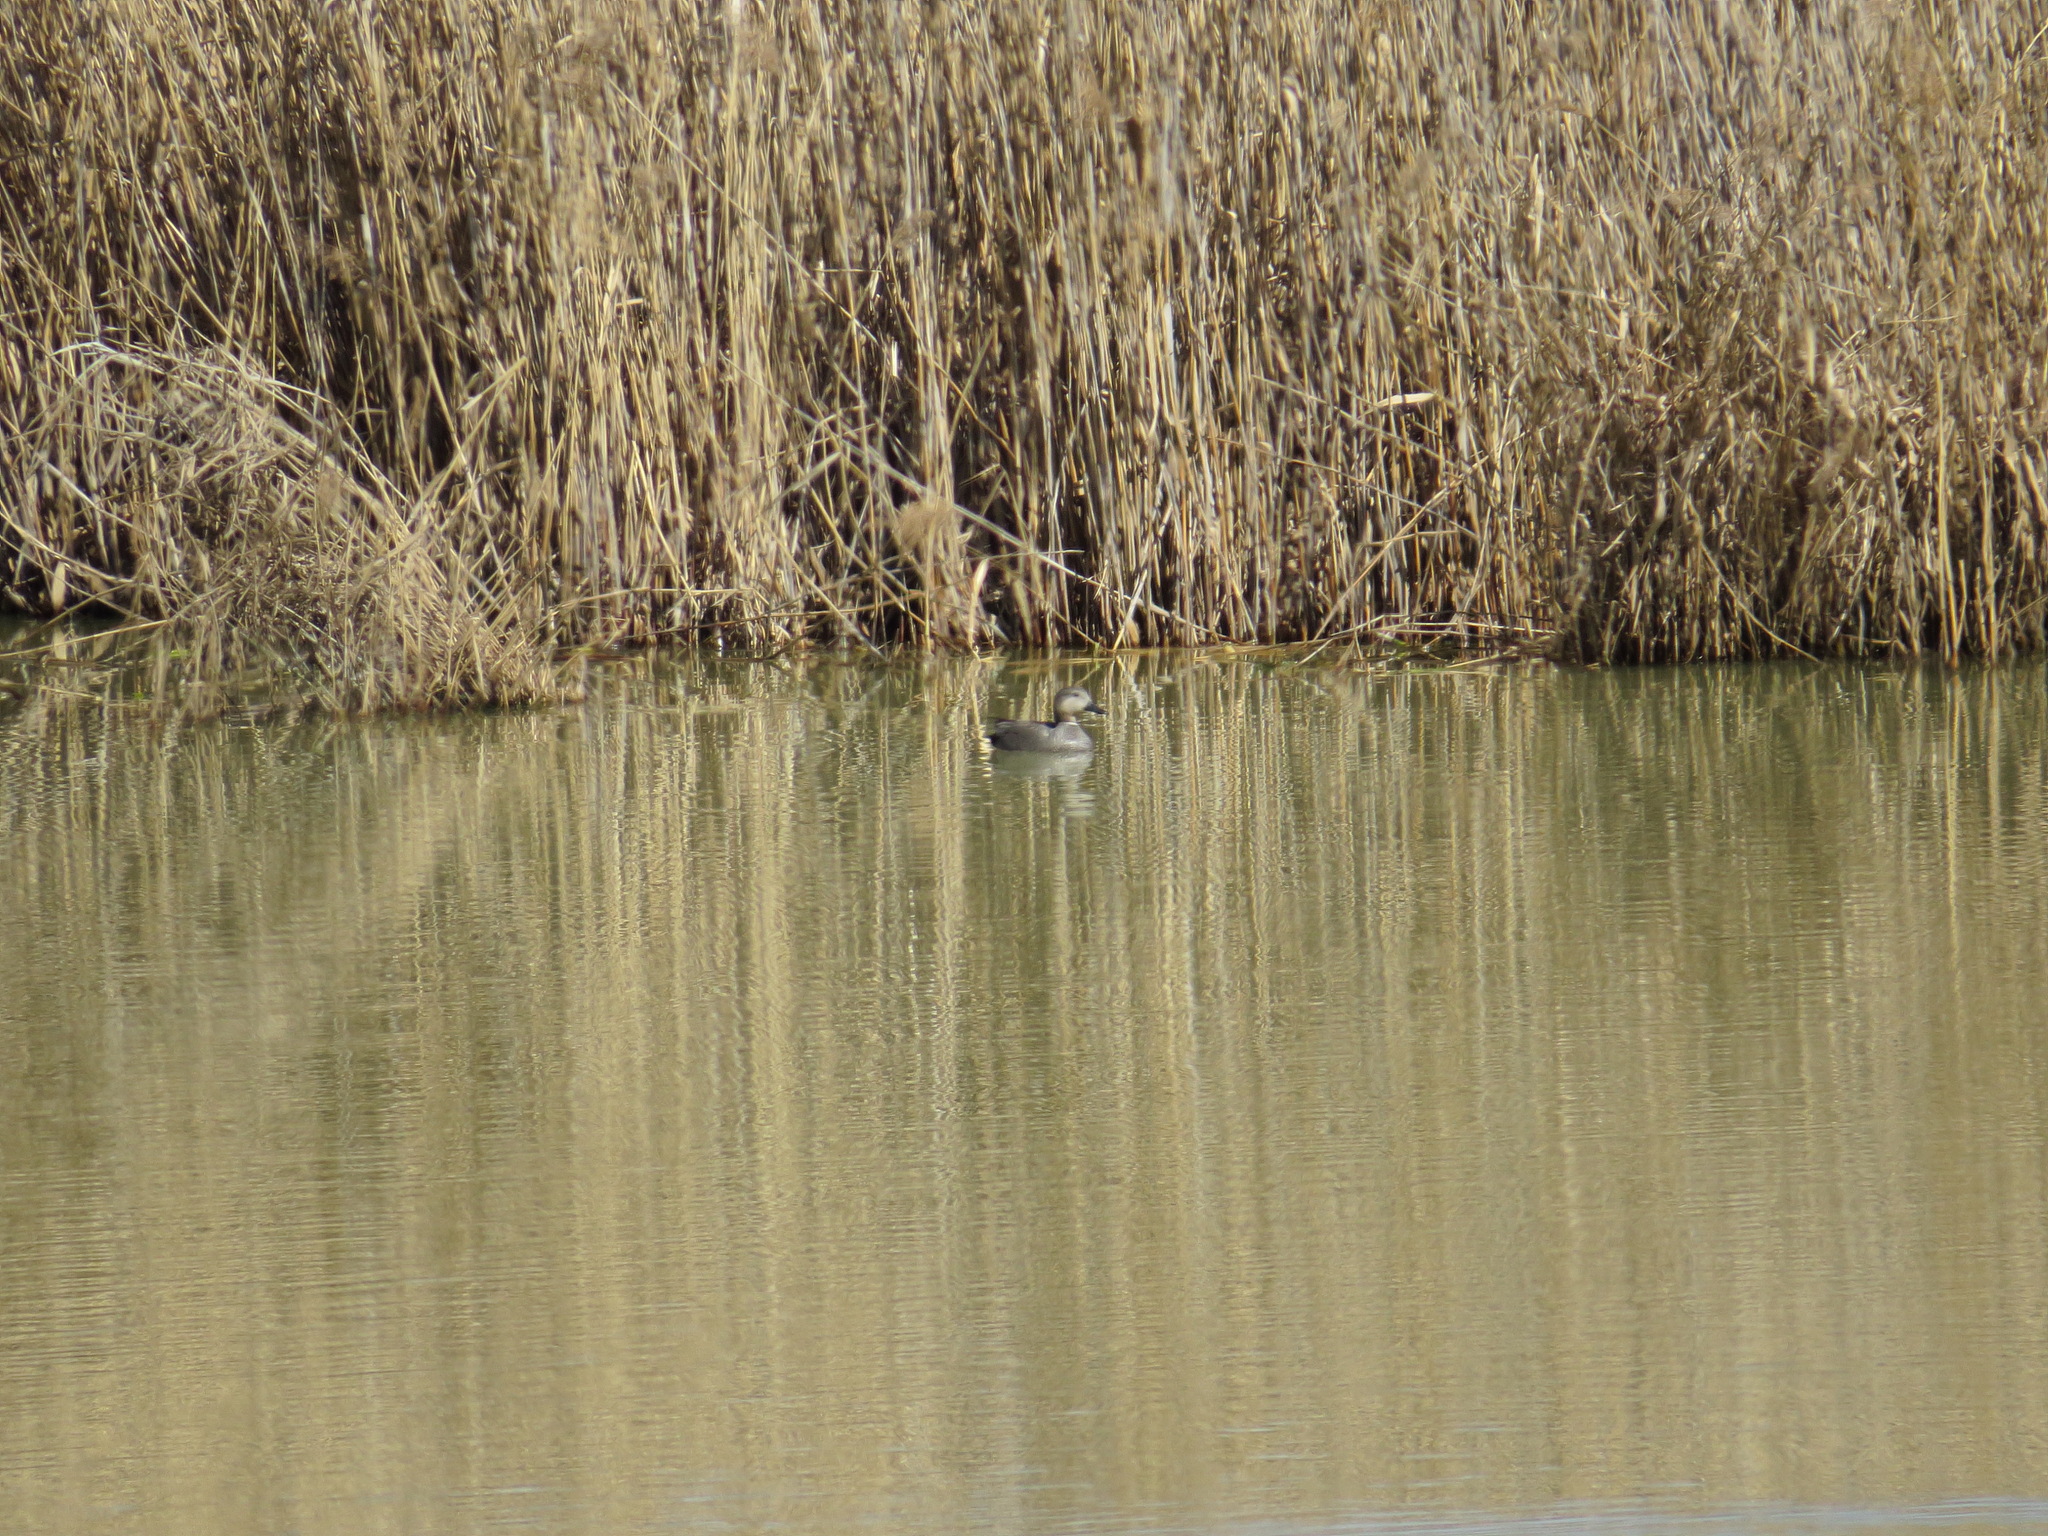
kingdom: Animalia
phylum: Chordata
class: Aves
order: Anseriformes
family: Anatidae
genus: Mareca
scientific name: Mareca strepera
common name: Gadwall
